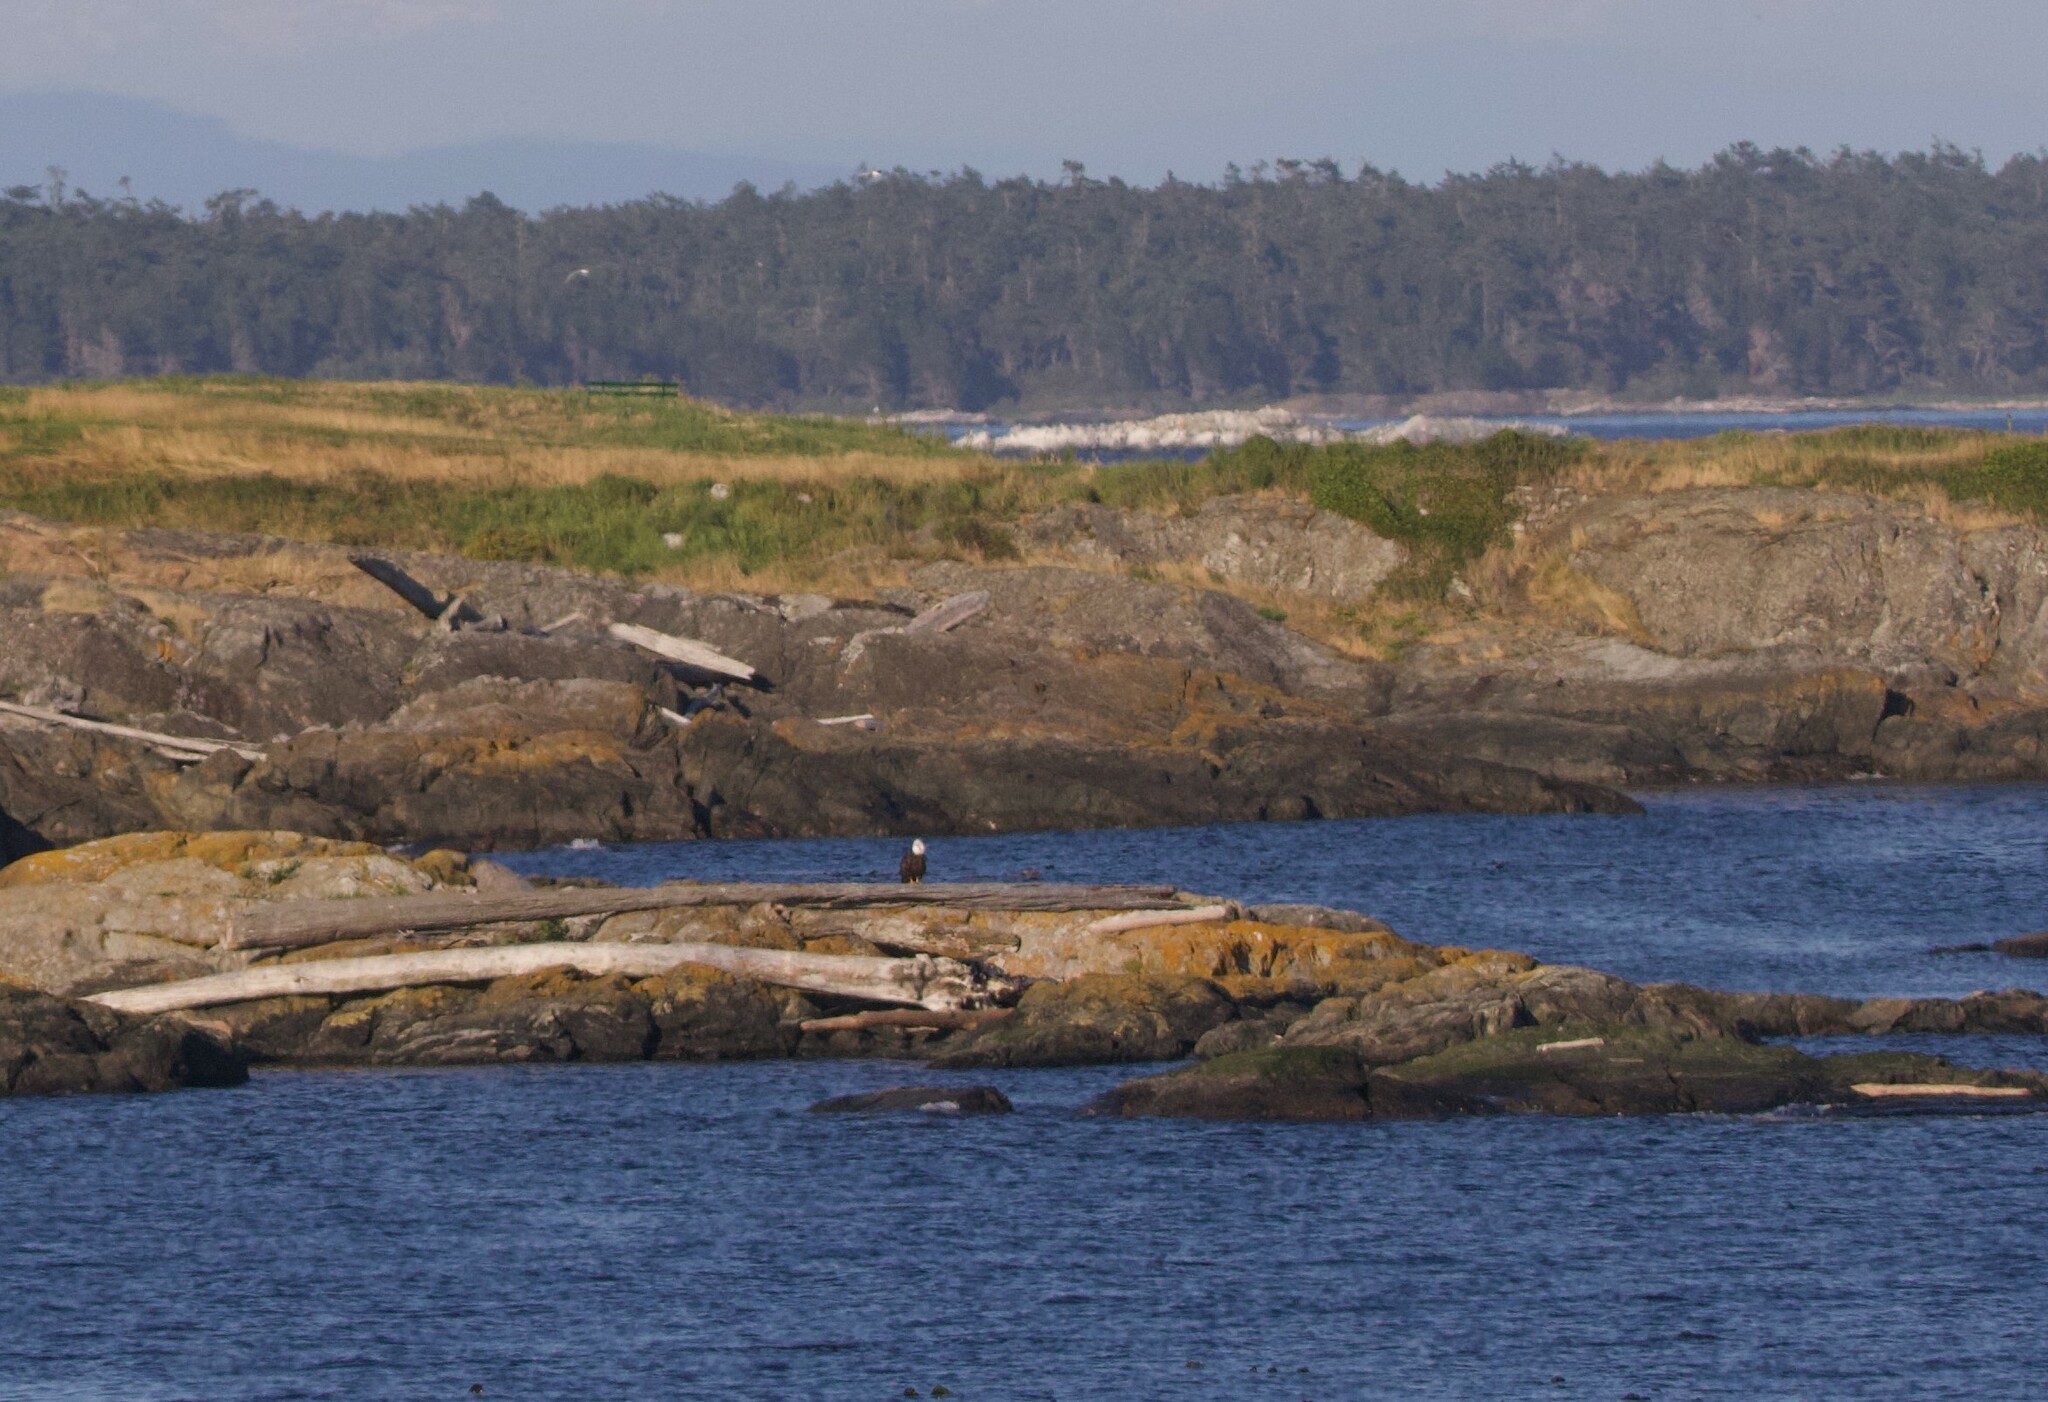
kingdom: Animalia
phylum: Chordata
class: Aves
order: Accipitriformes
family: Accipitridae
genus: Haliaeetus
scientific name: Haliaeetus leucocephalus
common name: Bald eagle
